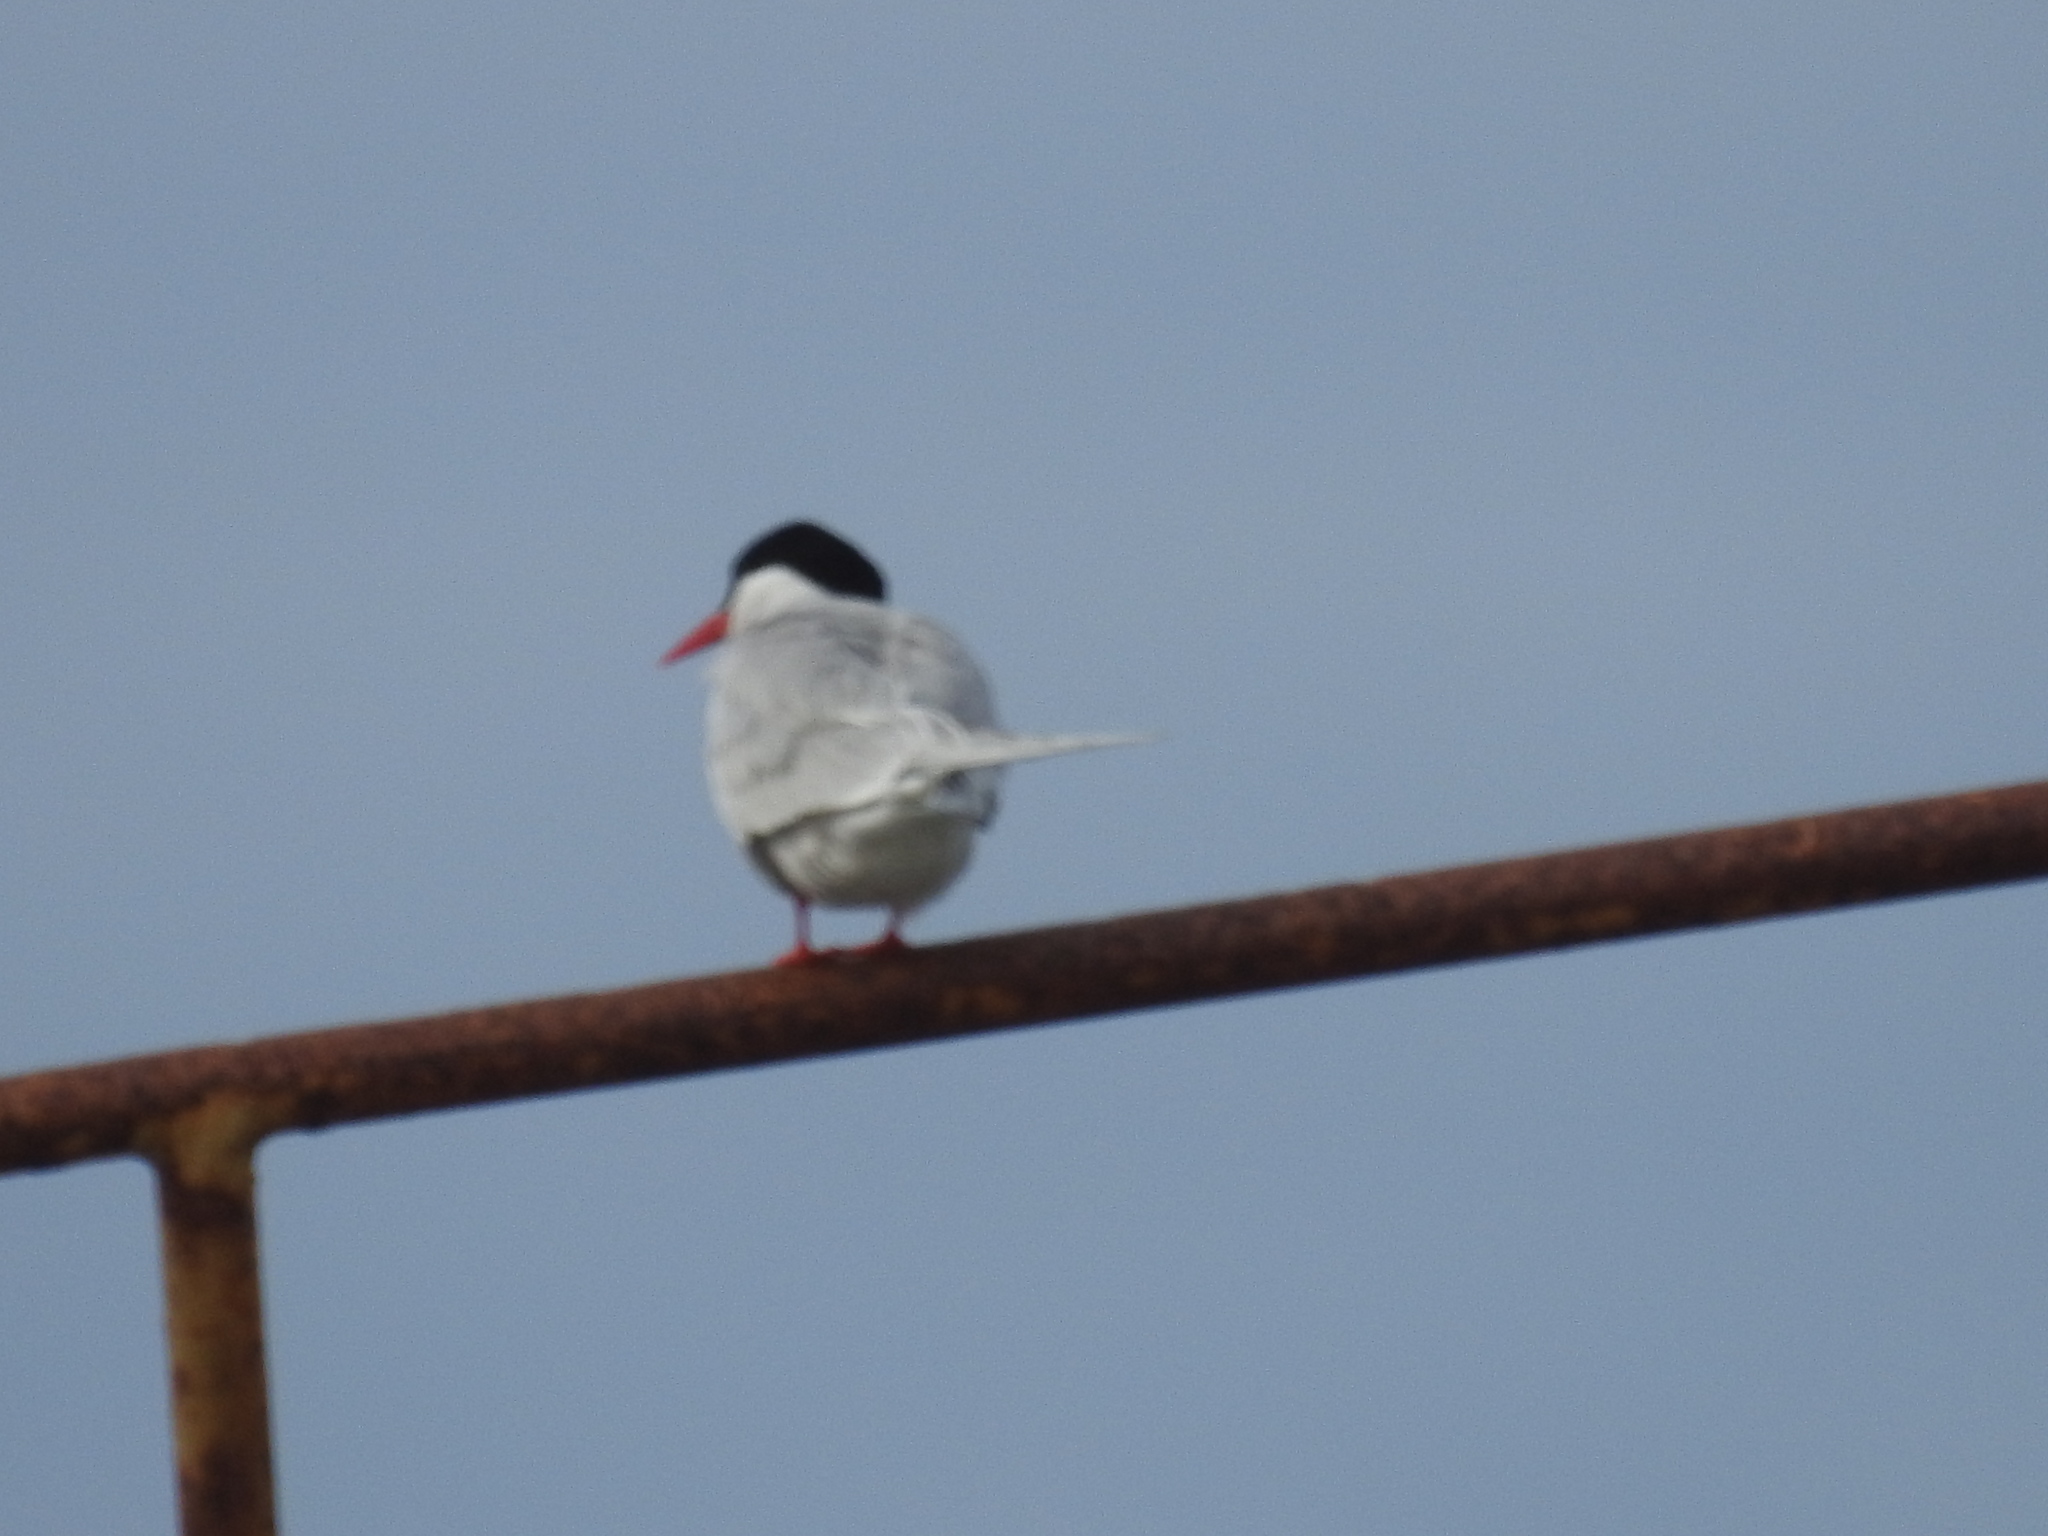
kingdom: Animalia
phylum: Chordata
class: Aves
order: Charadriiformes
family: Laridae
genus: Sterna
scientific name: Sterna hirundinacea
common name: South american tern
